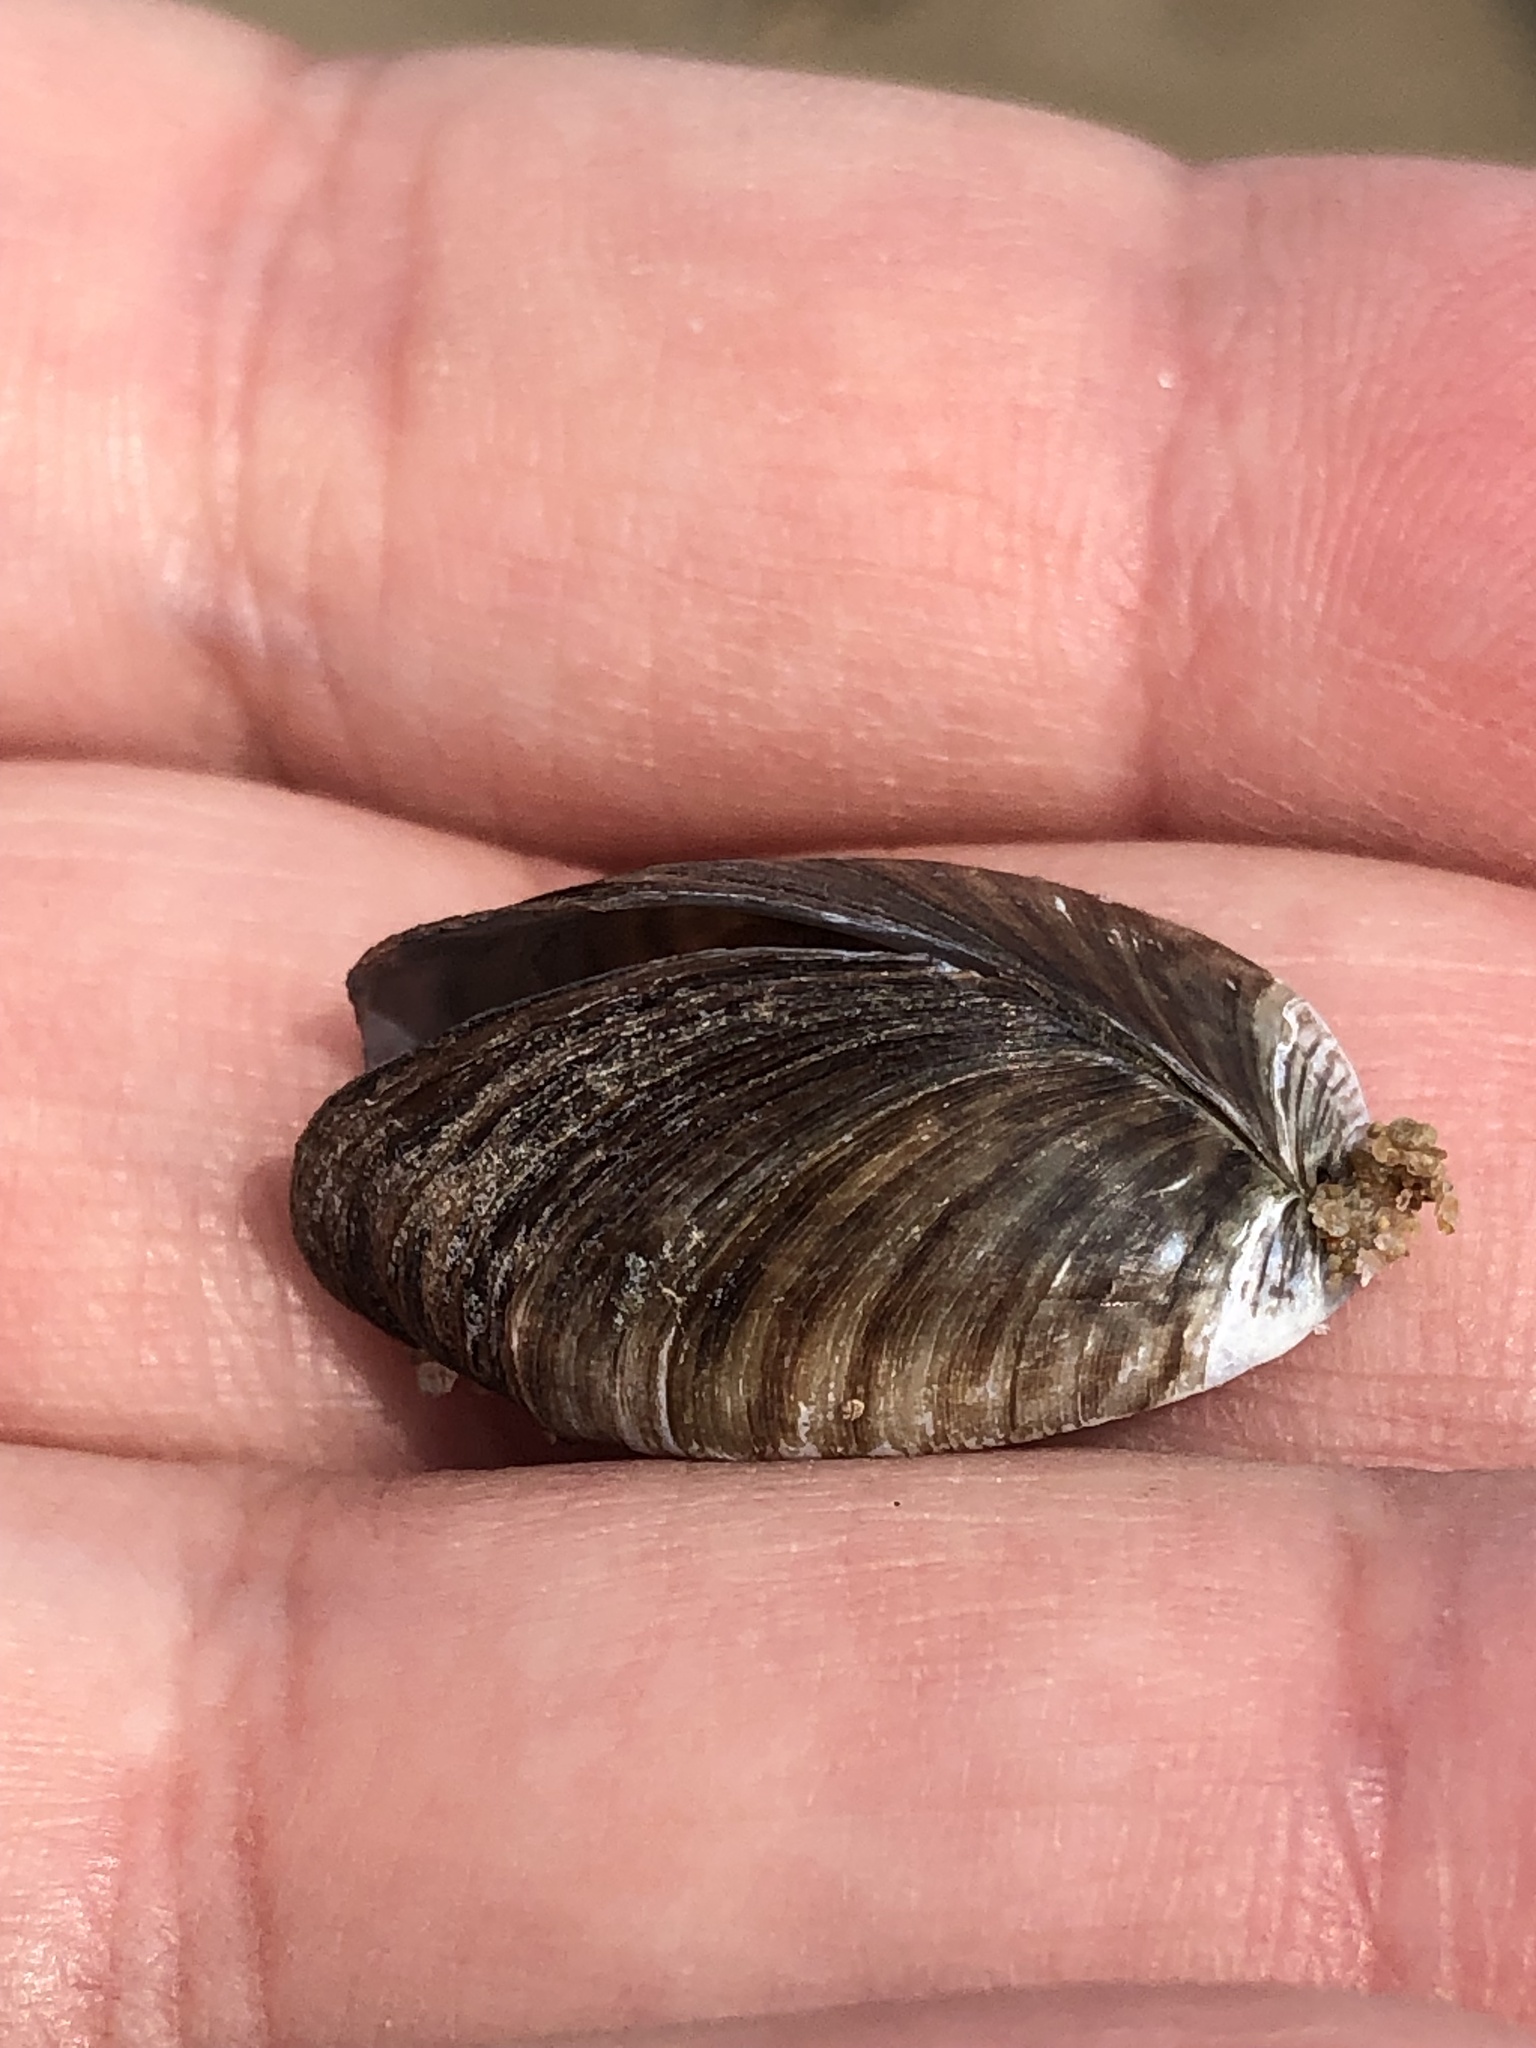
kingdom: Animalia
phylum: Mollusca
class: Bivalvia
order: Myida
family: Dreissenidae
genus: Dreissena
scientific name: Dreissena polymorpha
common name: Zebra mussel
